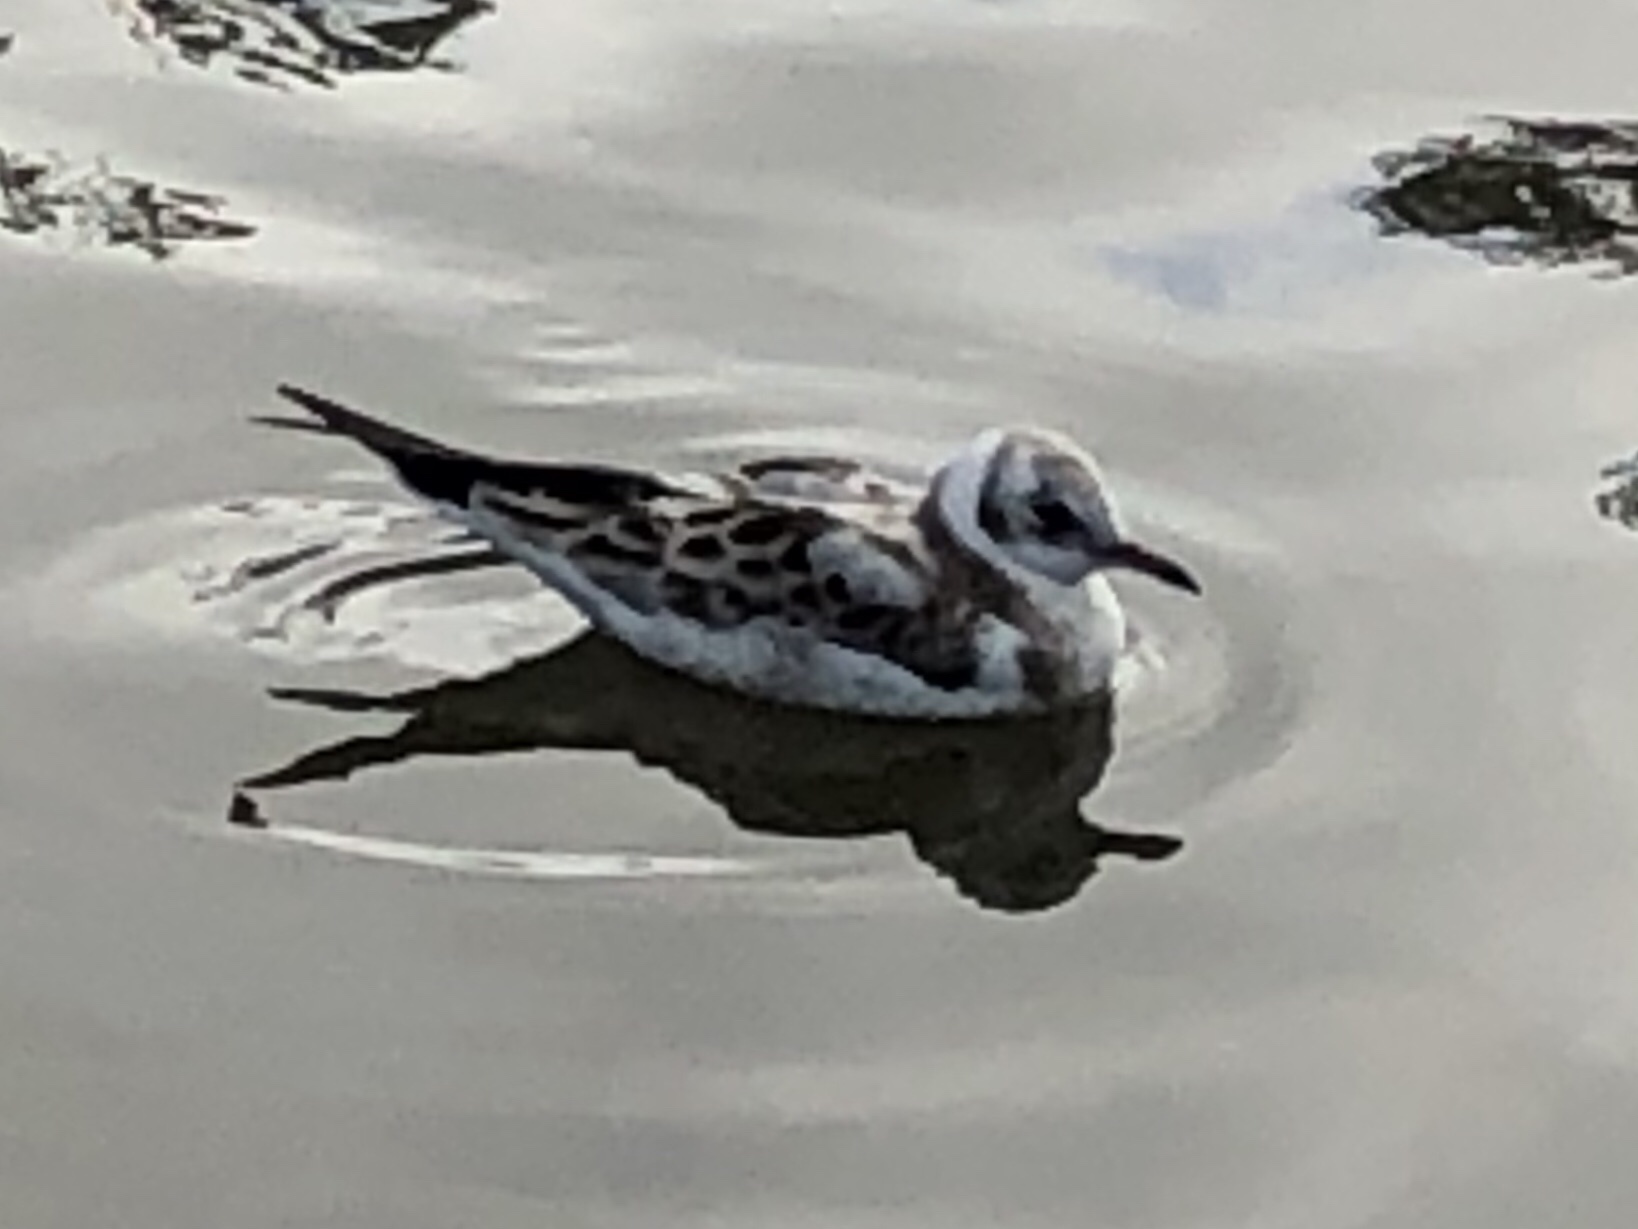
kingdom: Animalia
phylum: Chordata
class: Aves
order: Charadriiformes
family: Laridae
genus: Chroicocephalus
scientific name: Chroicocephalus ridibundus
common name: Black-headed gull
